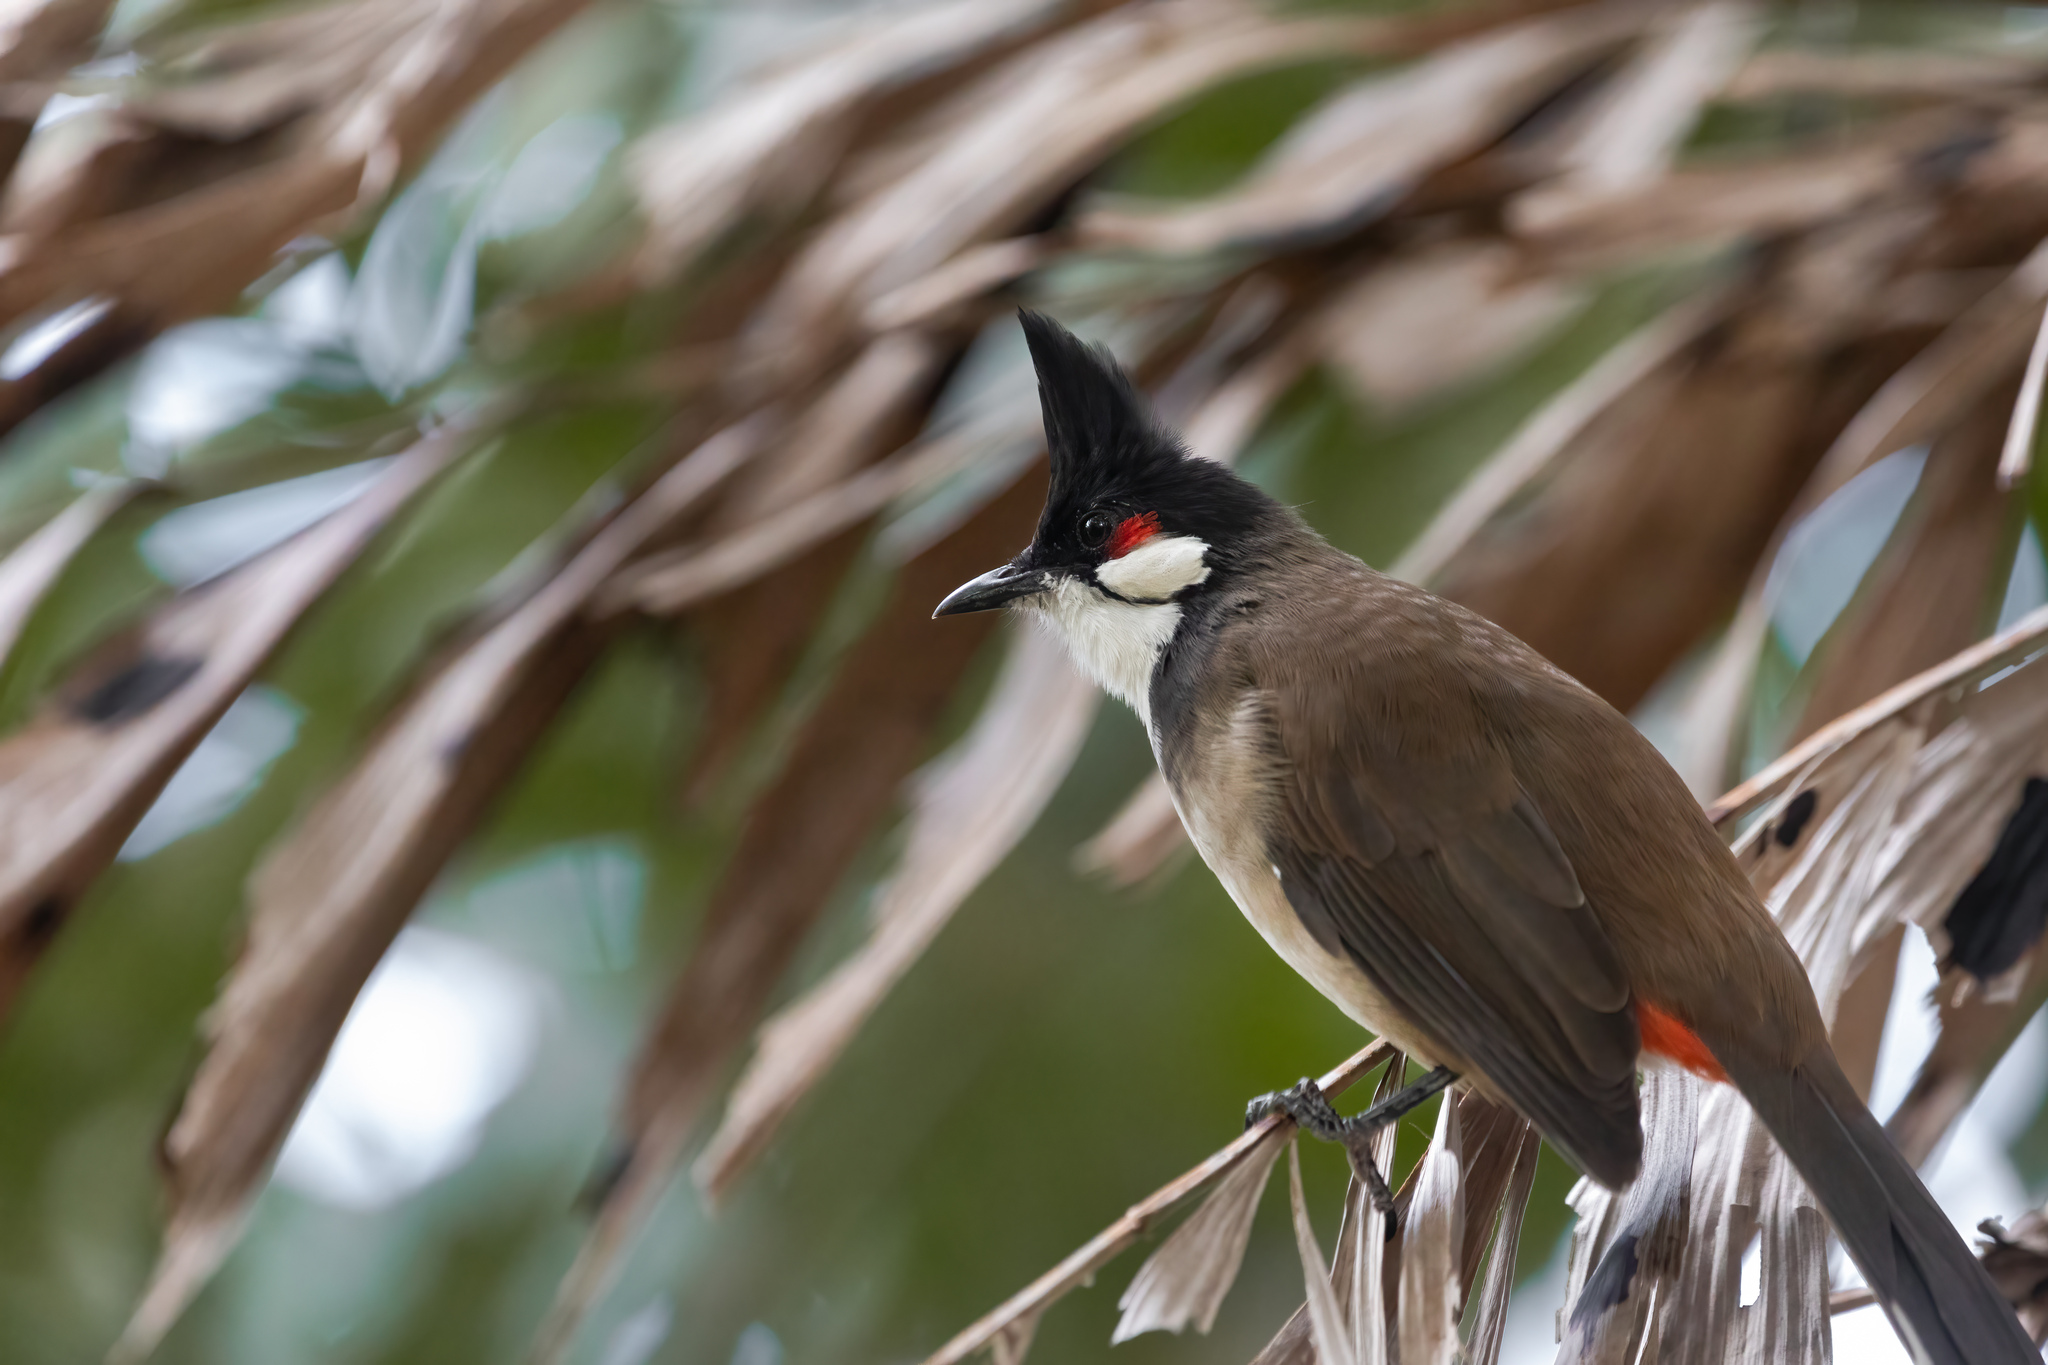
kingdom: Animalia
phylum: Chordata
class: Aves
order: Passeriformes
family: Pycnonotidae
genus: Pycnonotus
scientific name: Pycnonotus jocosus
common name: Red-whiskered bulbul
